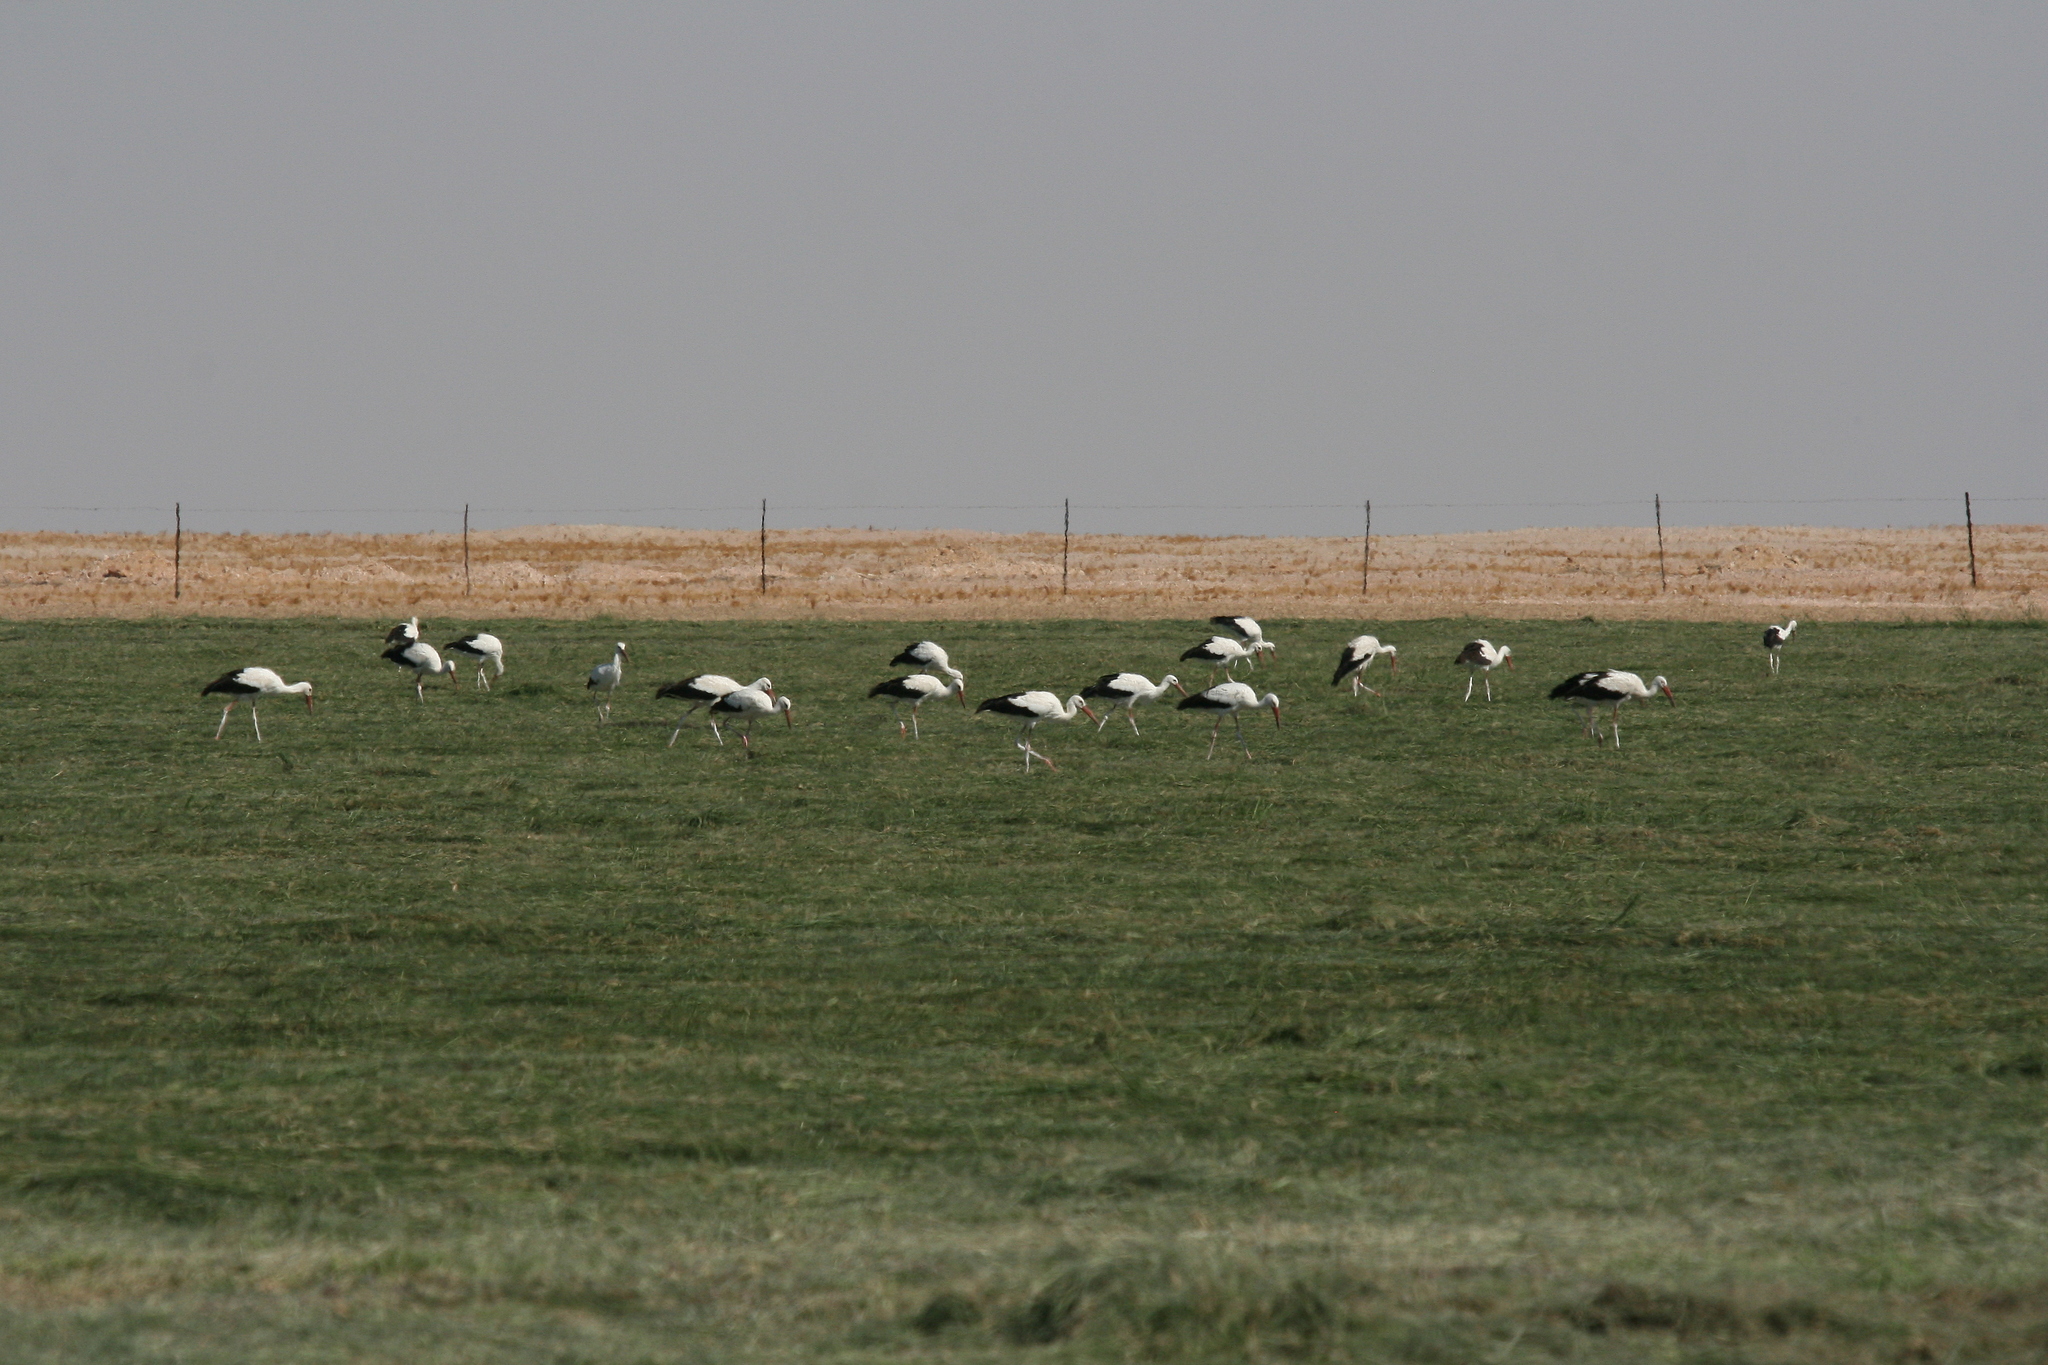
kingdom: Animalia
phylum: Chordata
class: Aves
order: Ciconiiformes
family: Ciconiidae
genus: Ciconia
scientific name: Ciconia ciconia
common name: White stork
